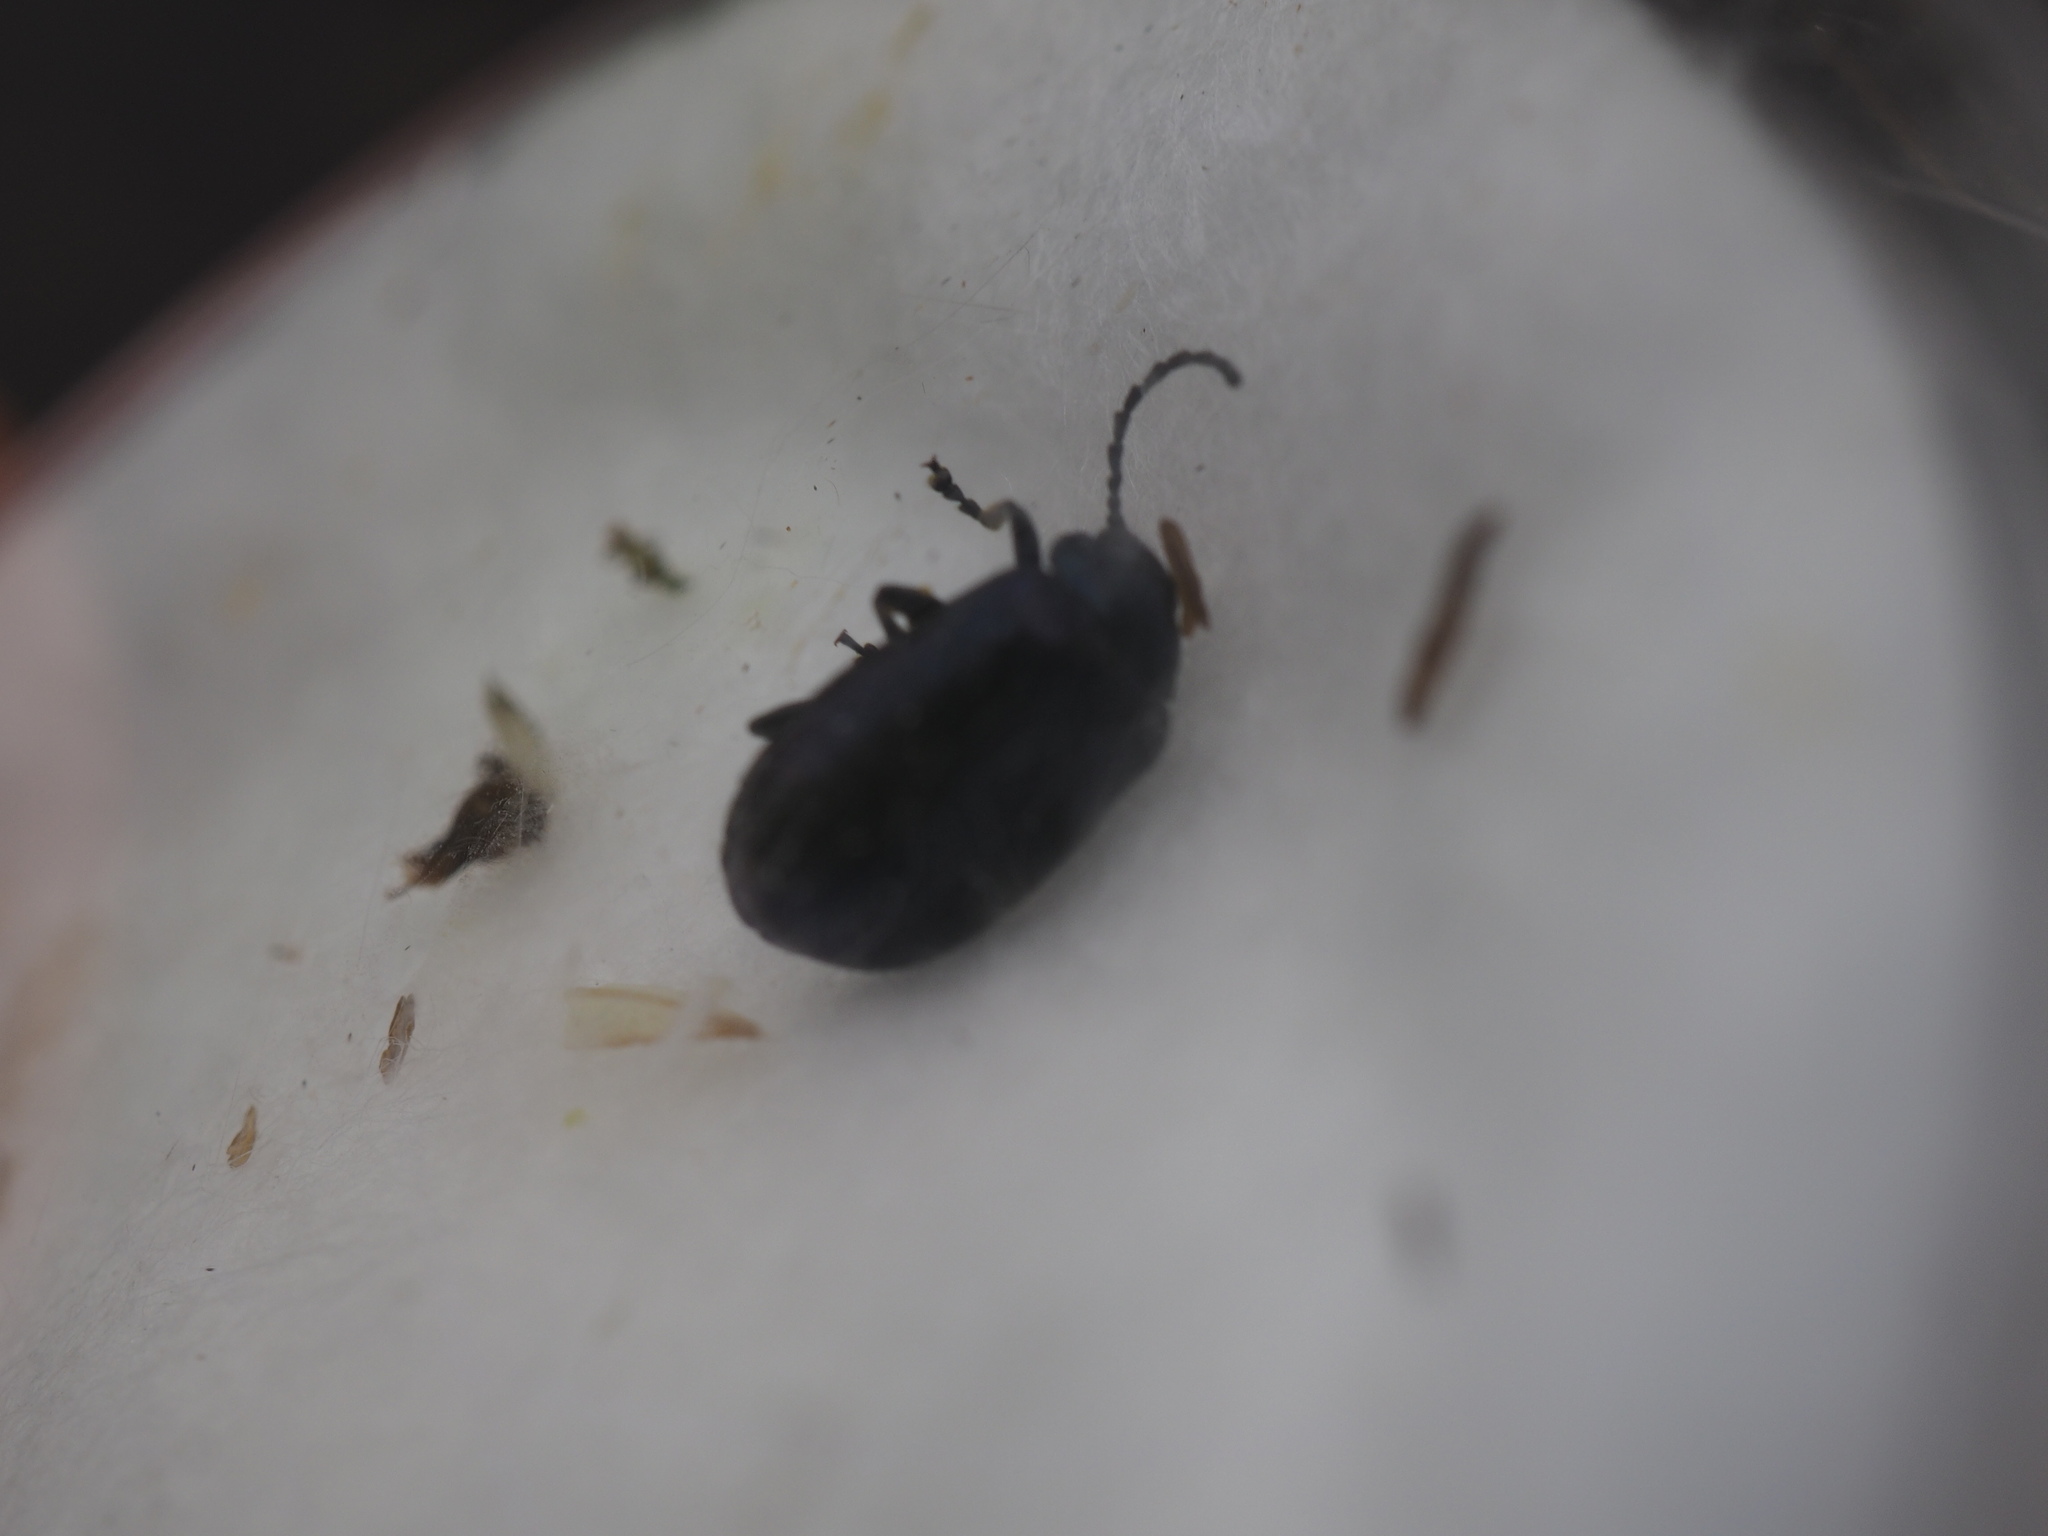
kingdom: Animalia
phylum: Arthropoda
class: Insecta
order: Coleoptera
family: Chrysomelidae
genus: Agelastica
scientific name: Agelastica alni
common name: Alder leaf beetle
